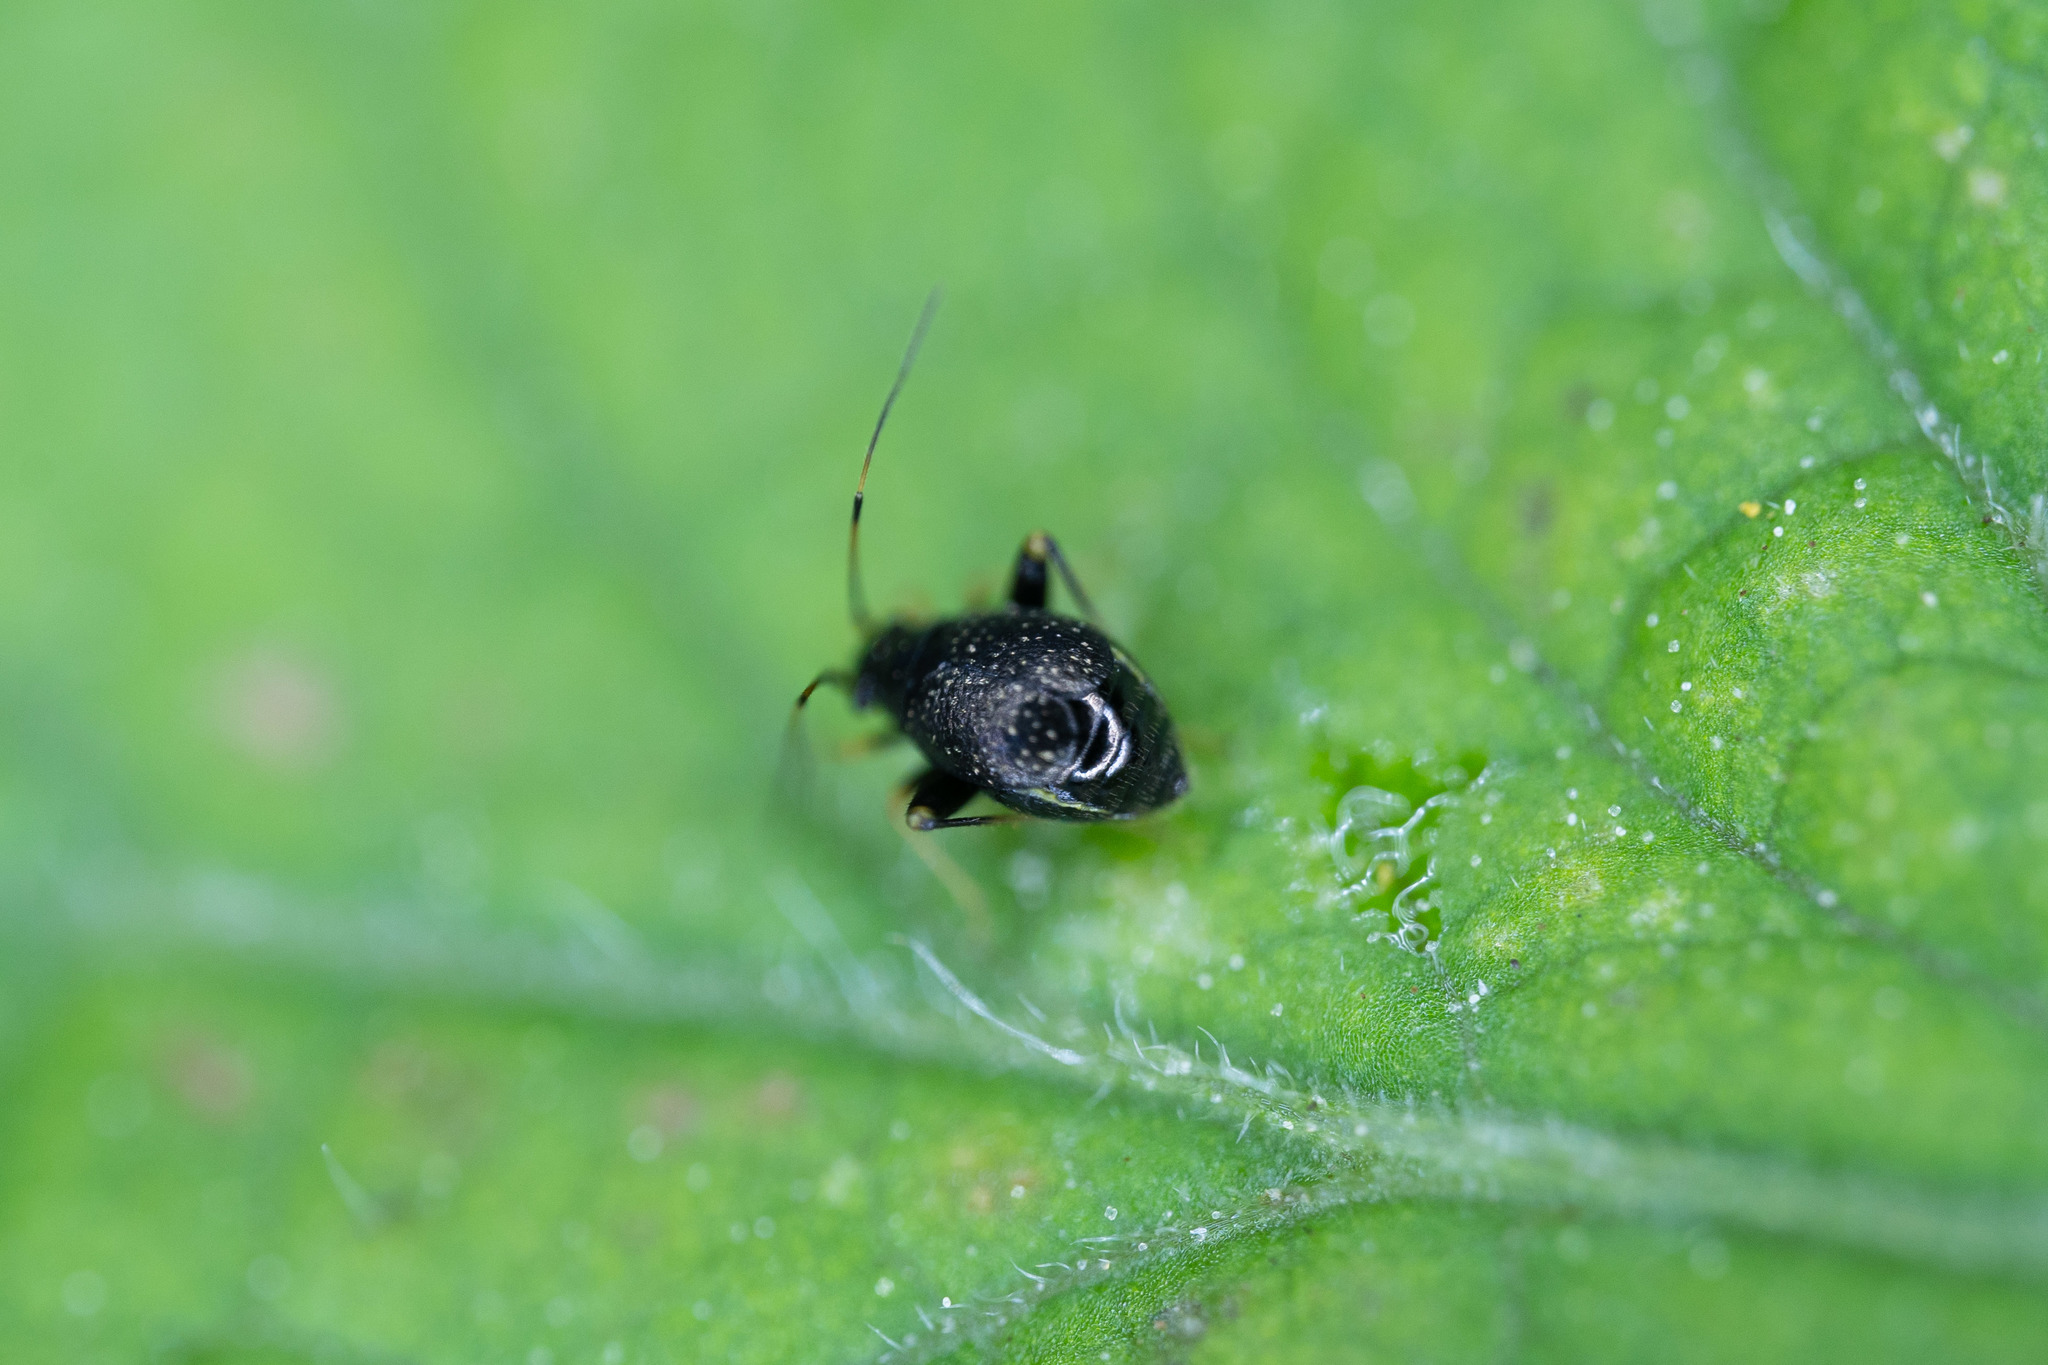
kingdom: Animalia
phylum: Arthropoda
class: Insecta
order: Hemiptera
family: Miridae
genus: Microtechnites
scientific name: Microtechnites bractatus
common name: Garden fleahopper
